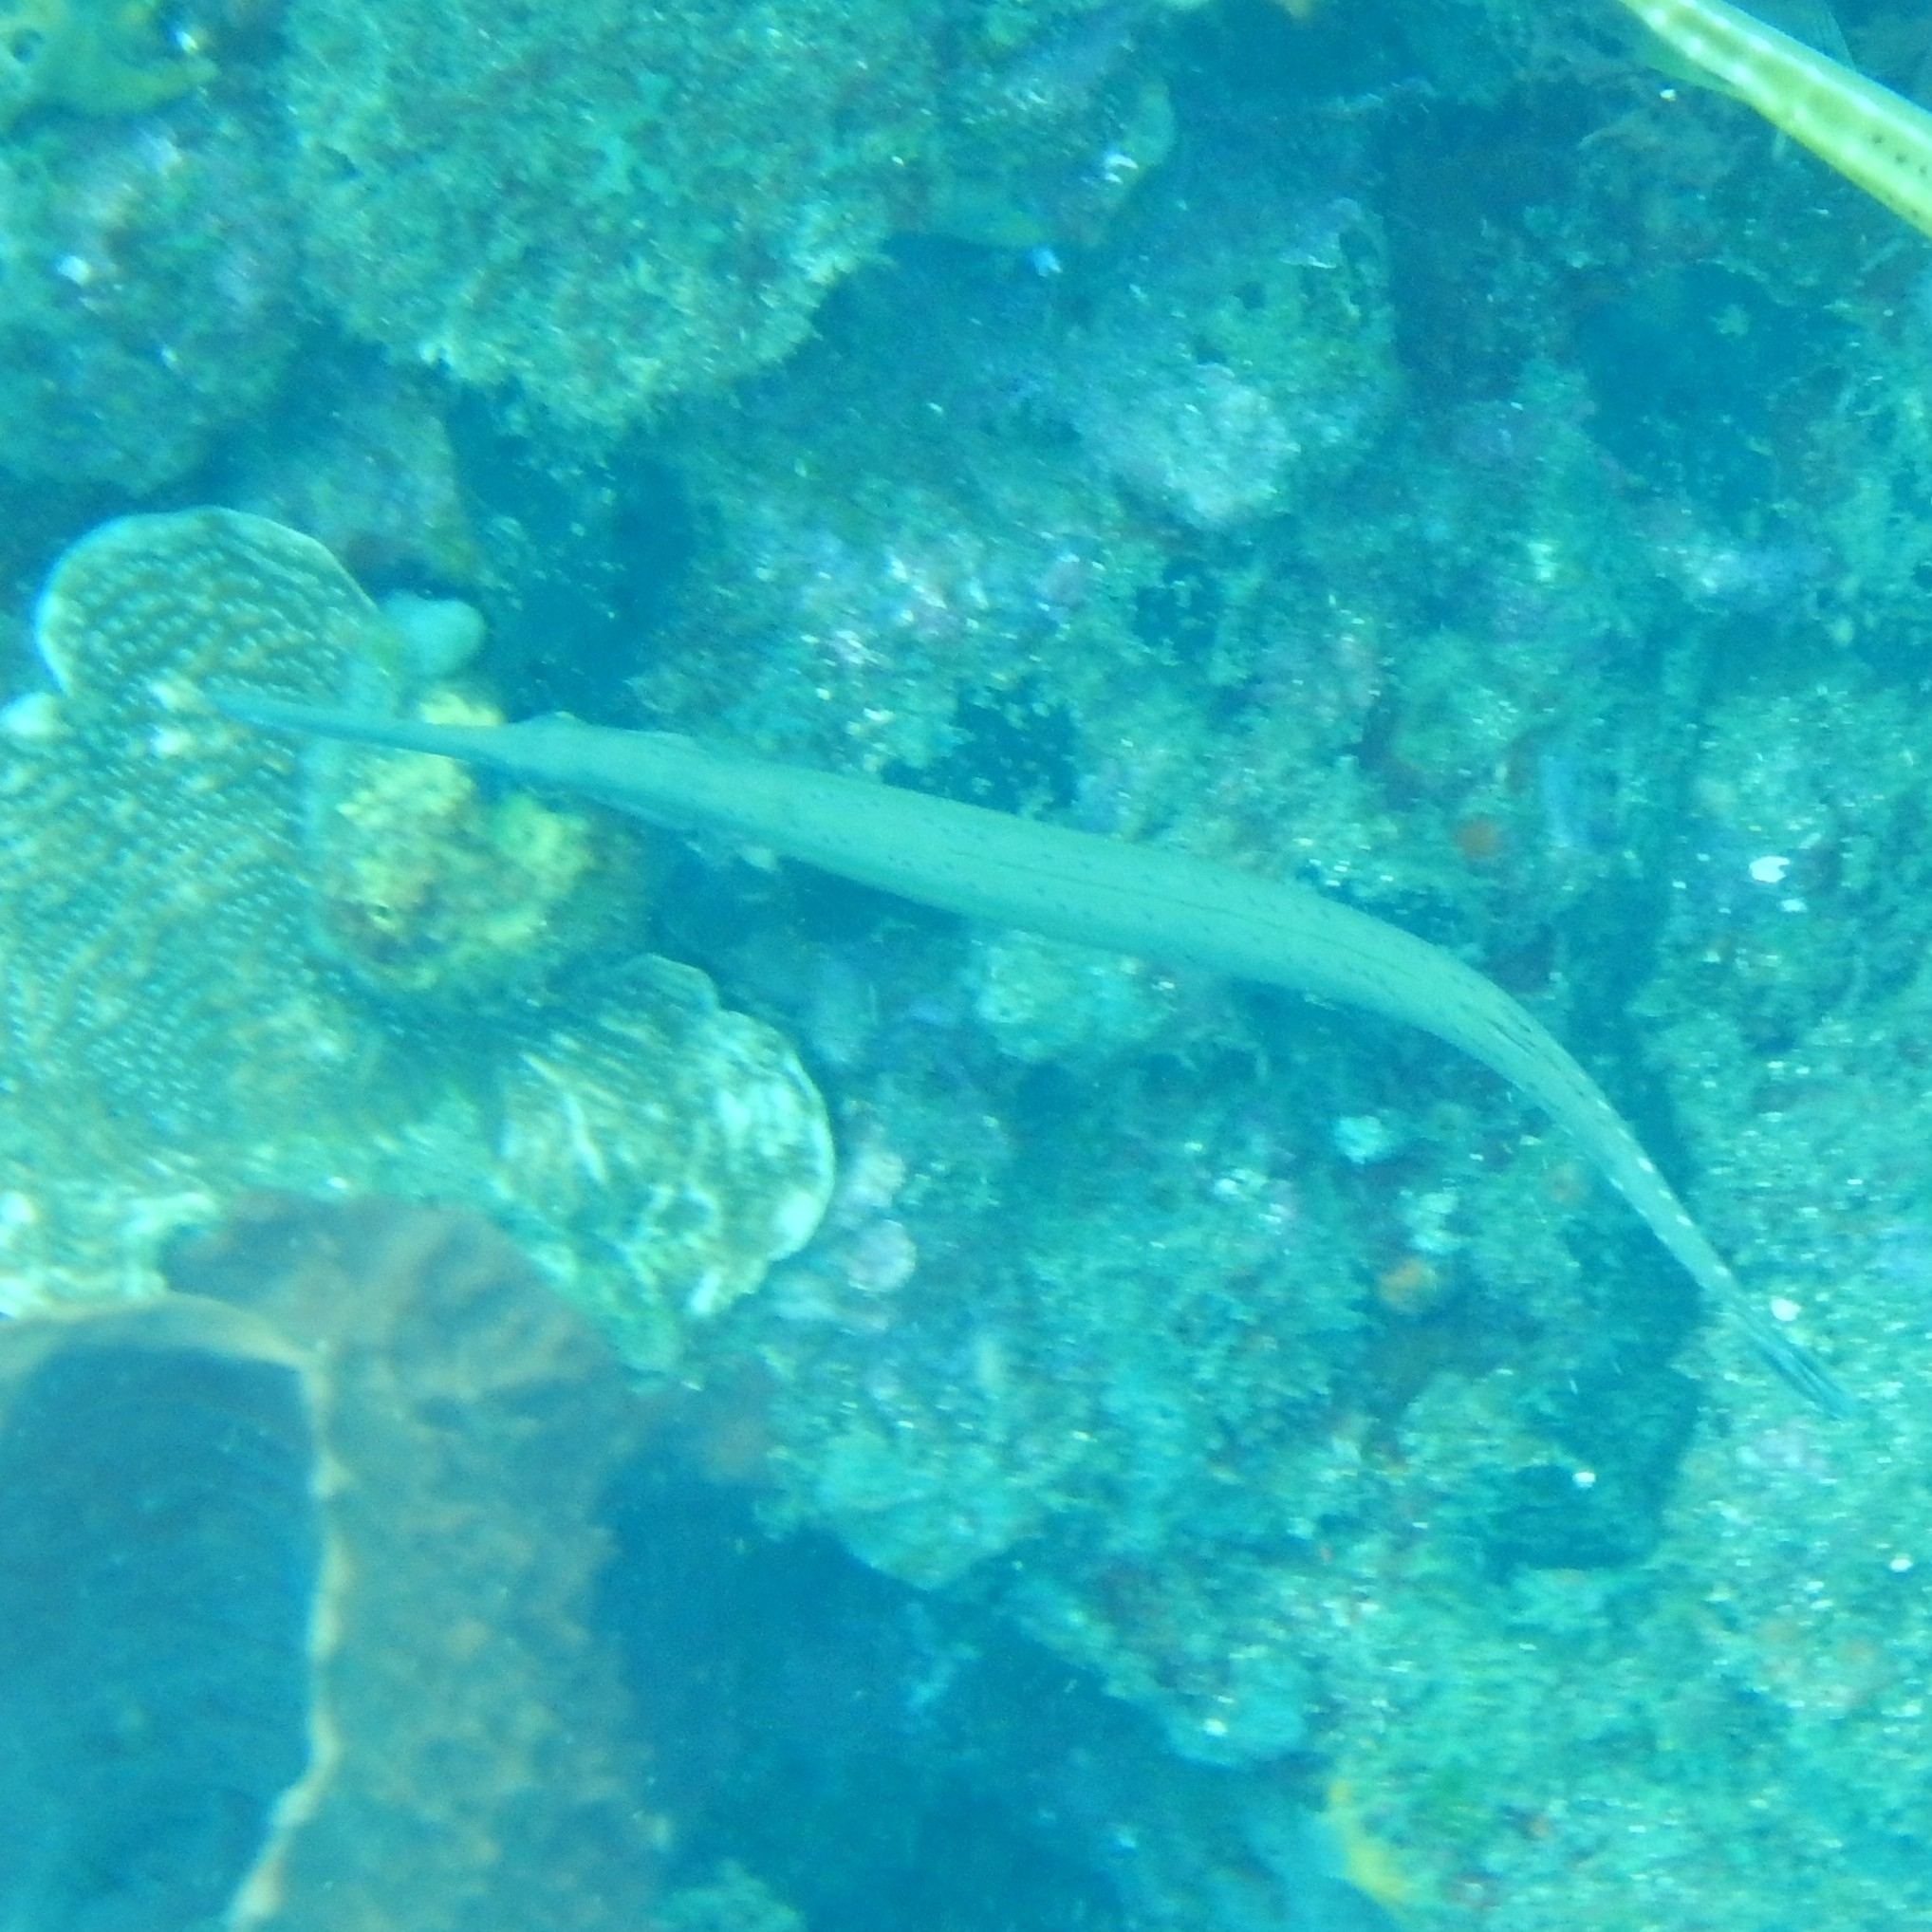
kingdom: Animalia
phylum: Chordata
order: Syngnathiformes
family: Aulostomidae
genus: Aulostomus
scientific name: Aulostomus maculatus
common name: West atlantic trumpetfish
